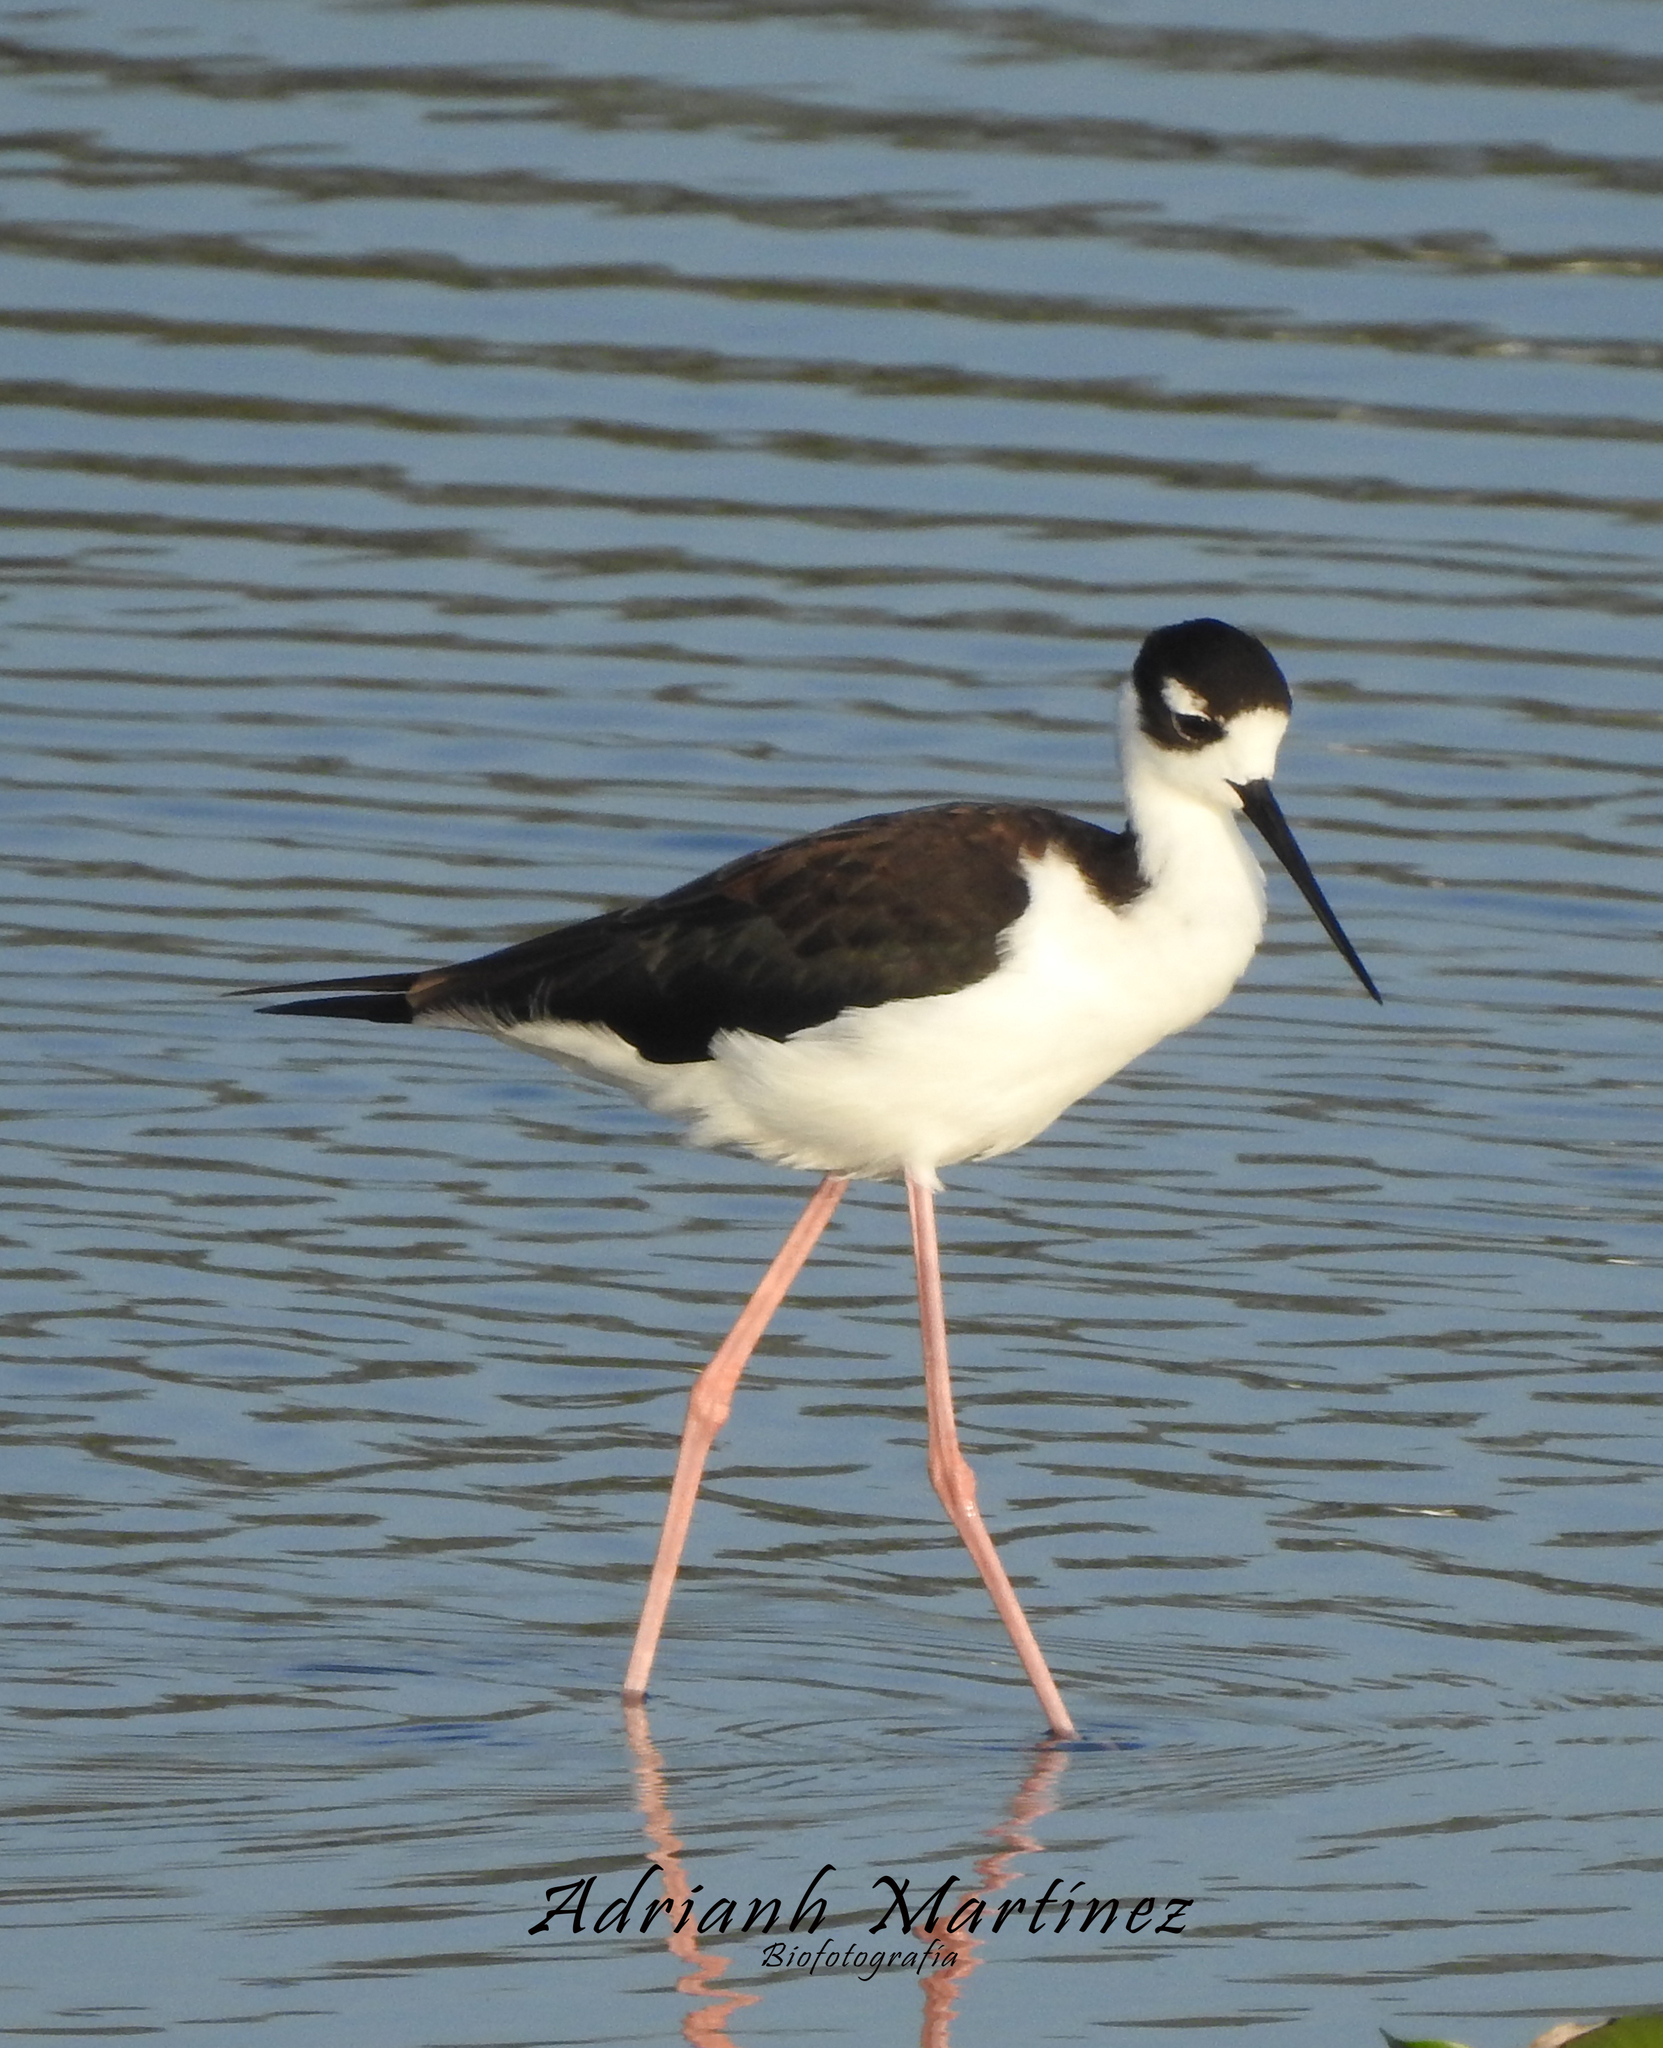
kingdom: Animalia
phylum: Chordata
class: Aves
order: Charadriiformes
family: Recurvirostridae
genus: Himantopus
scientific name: Himantopus mexicanus
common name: Black-necked stilt
